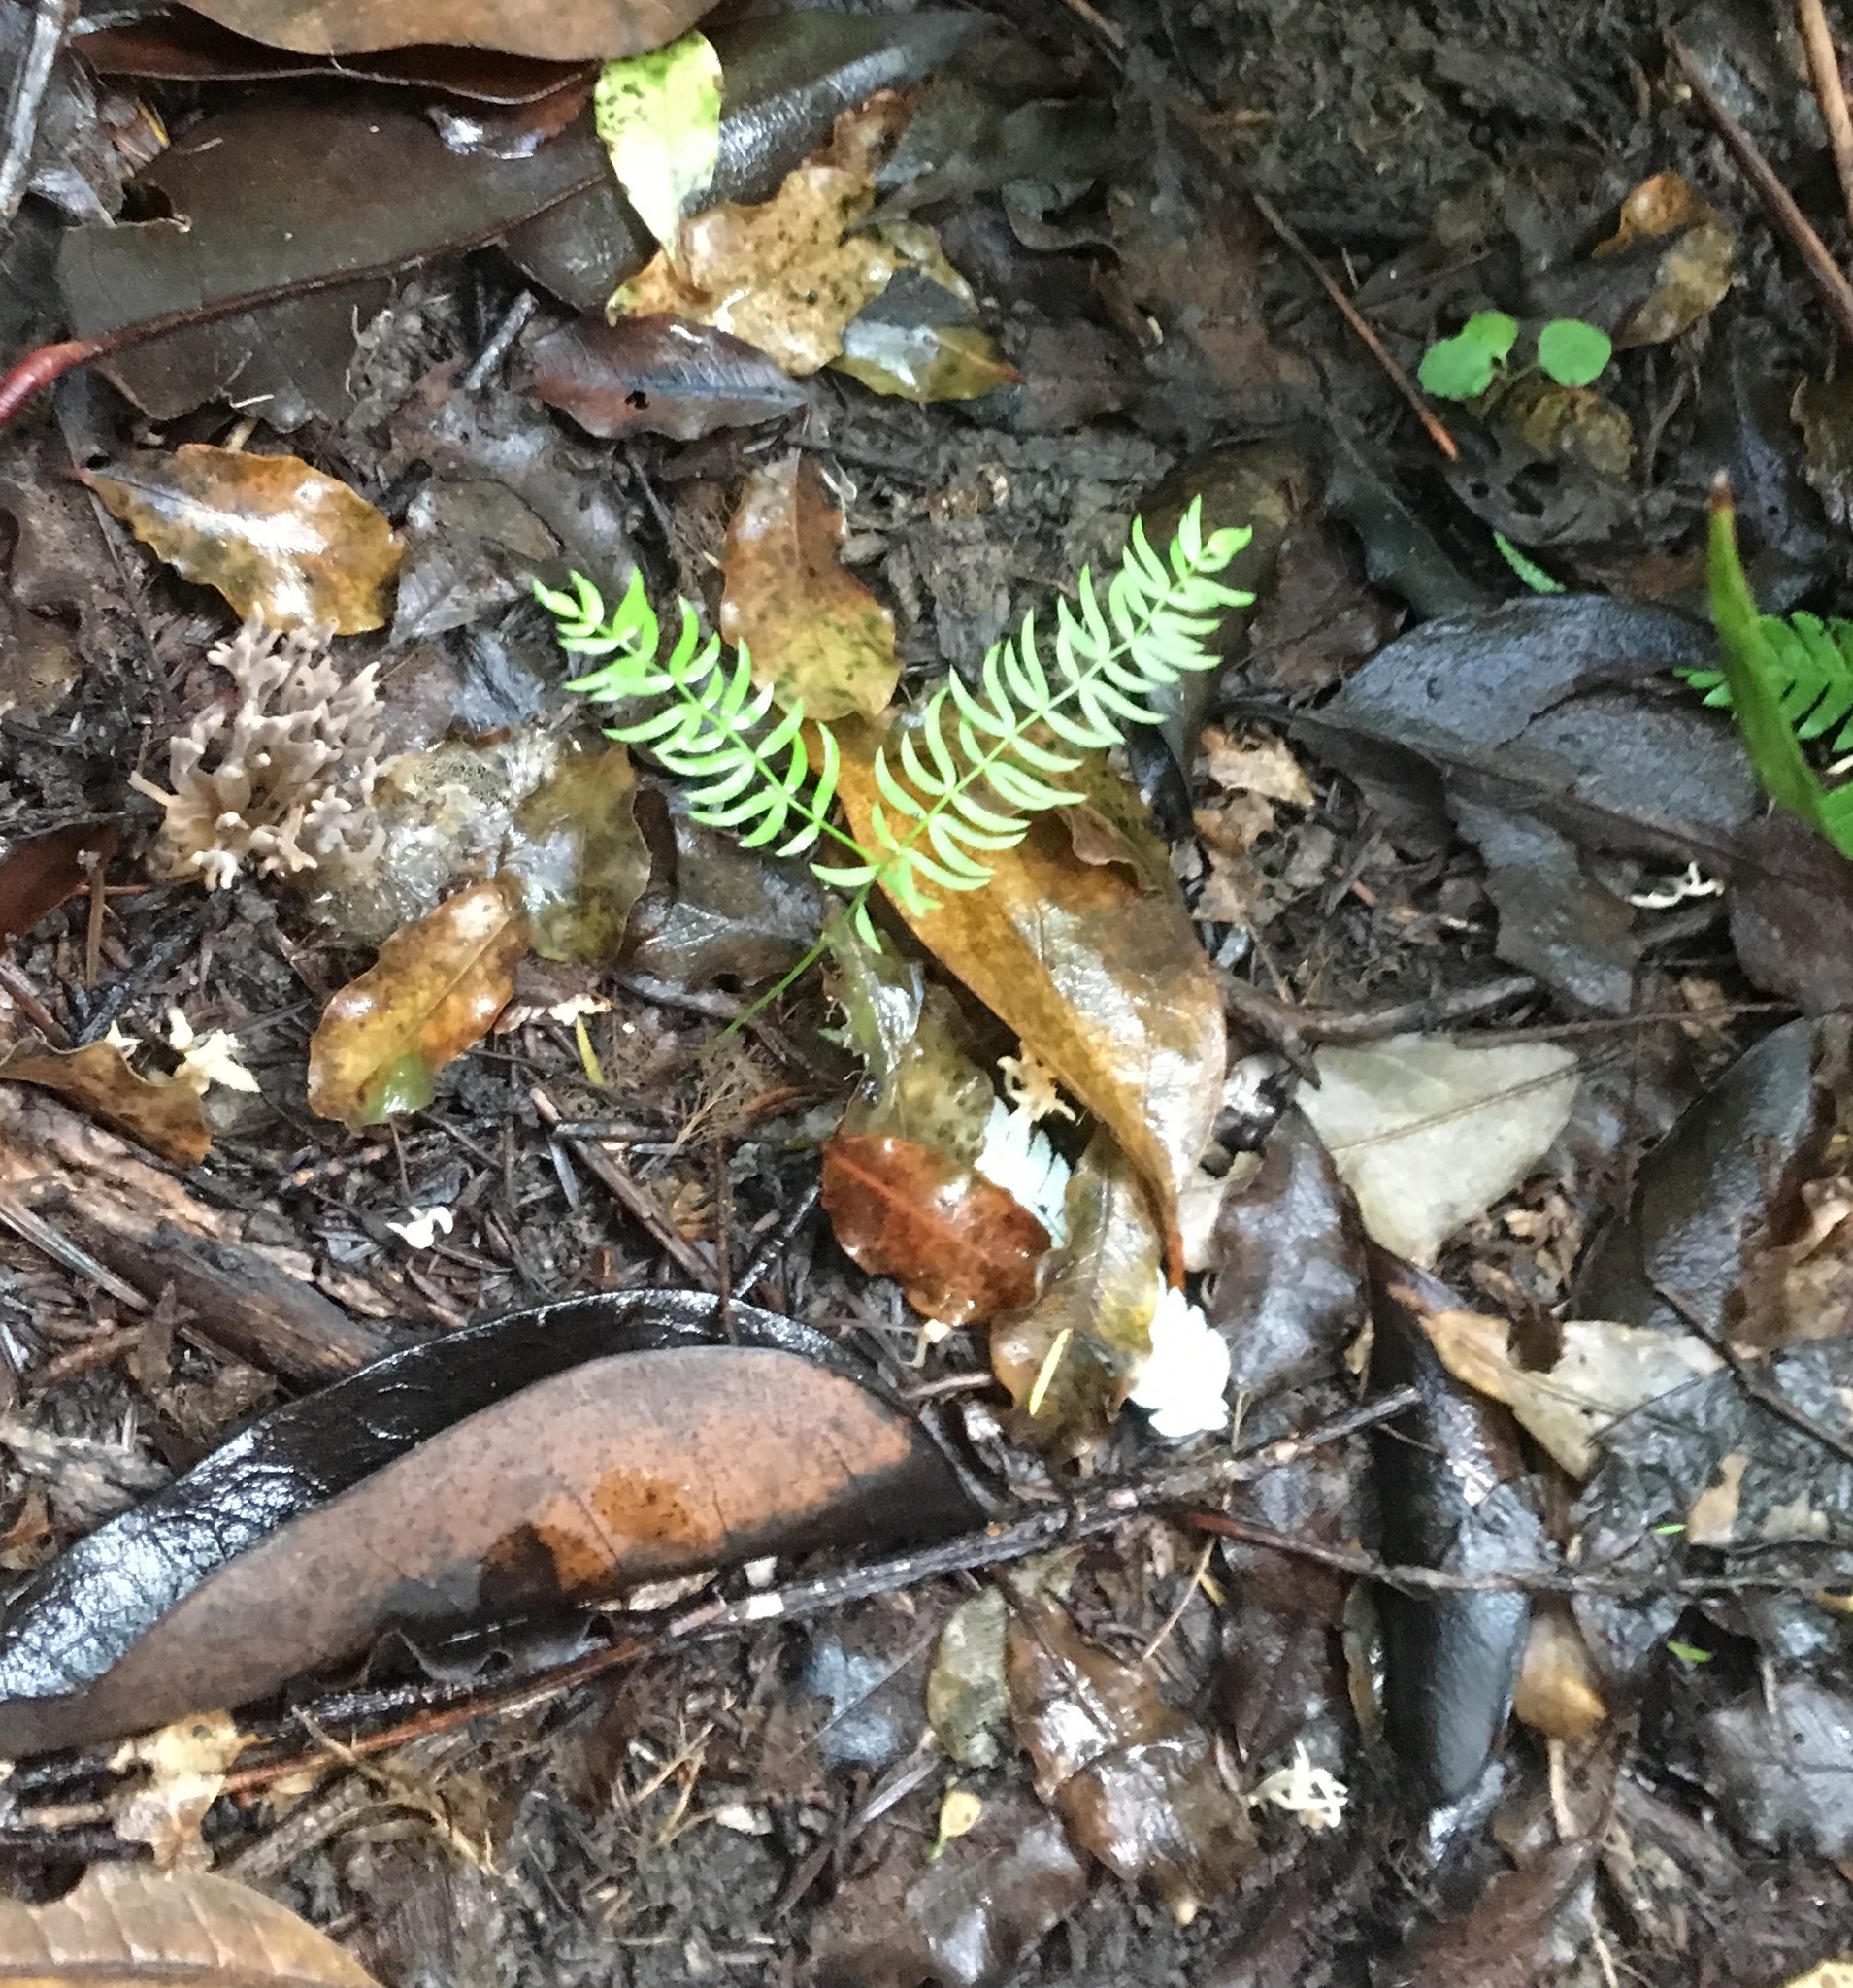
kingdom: Plantae
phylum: Tracheophyta
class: Liliopsida
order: Asparagales
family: Asparagaceae
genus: Asparagus
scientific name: Asparagus scandens
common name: Asparagus-fern
